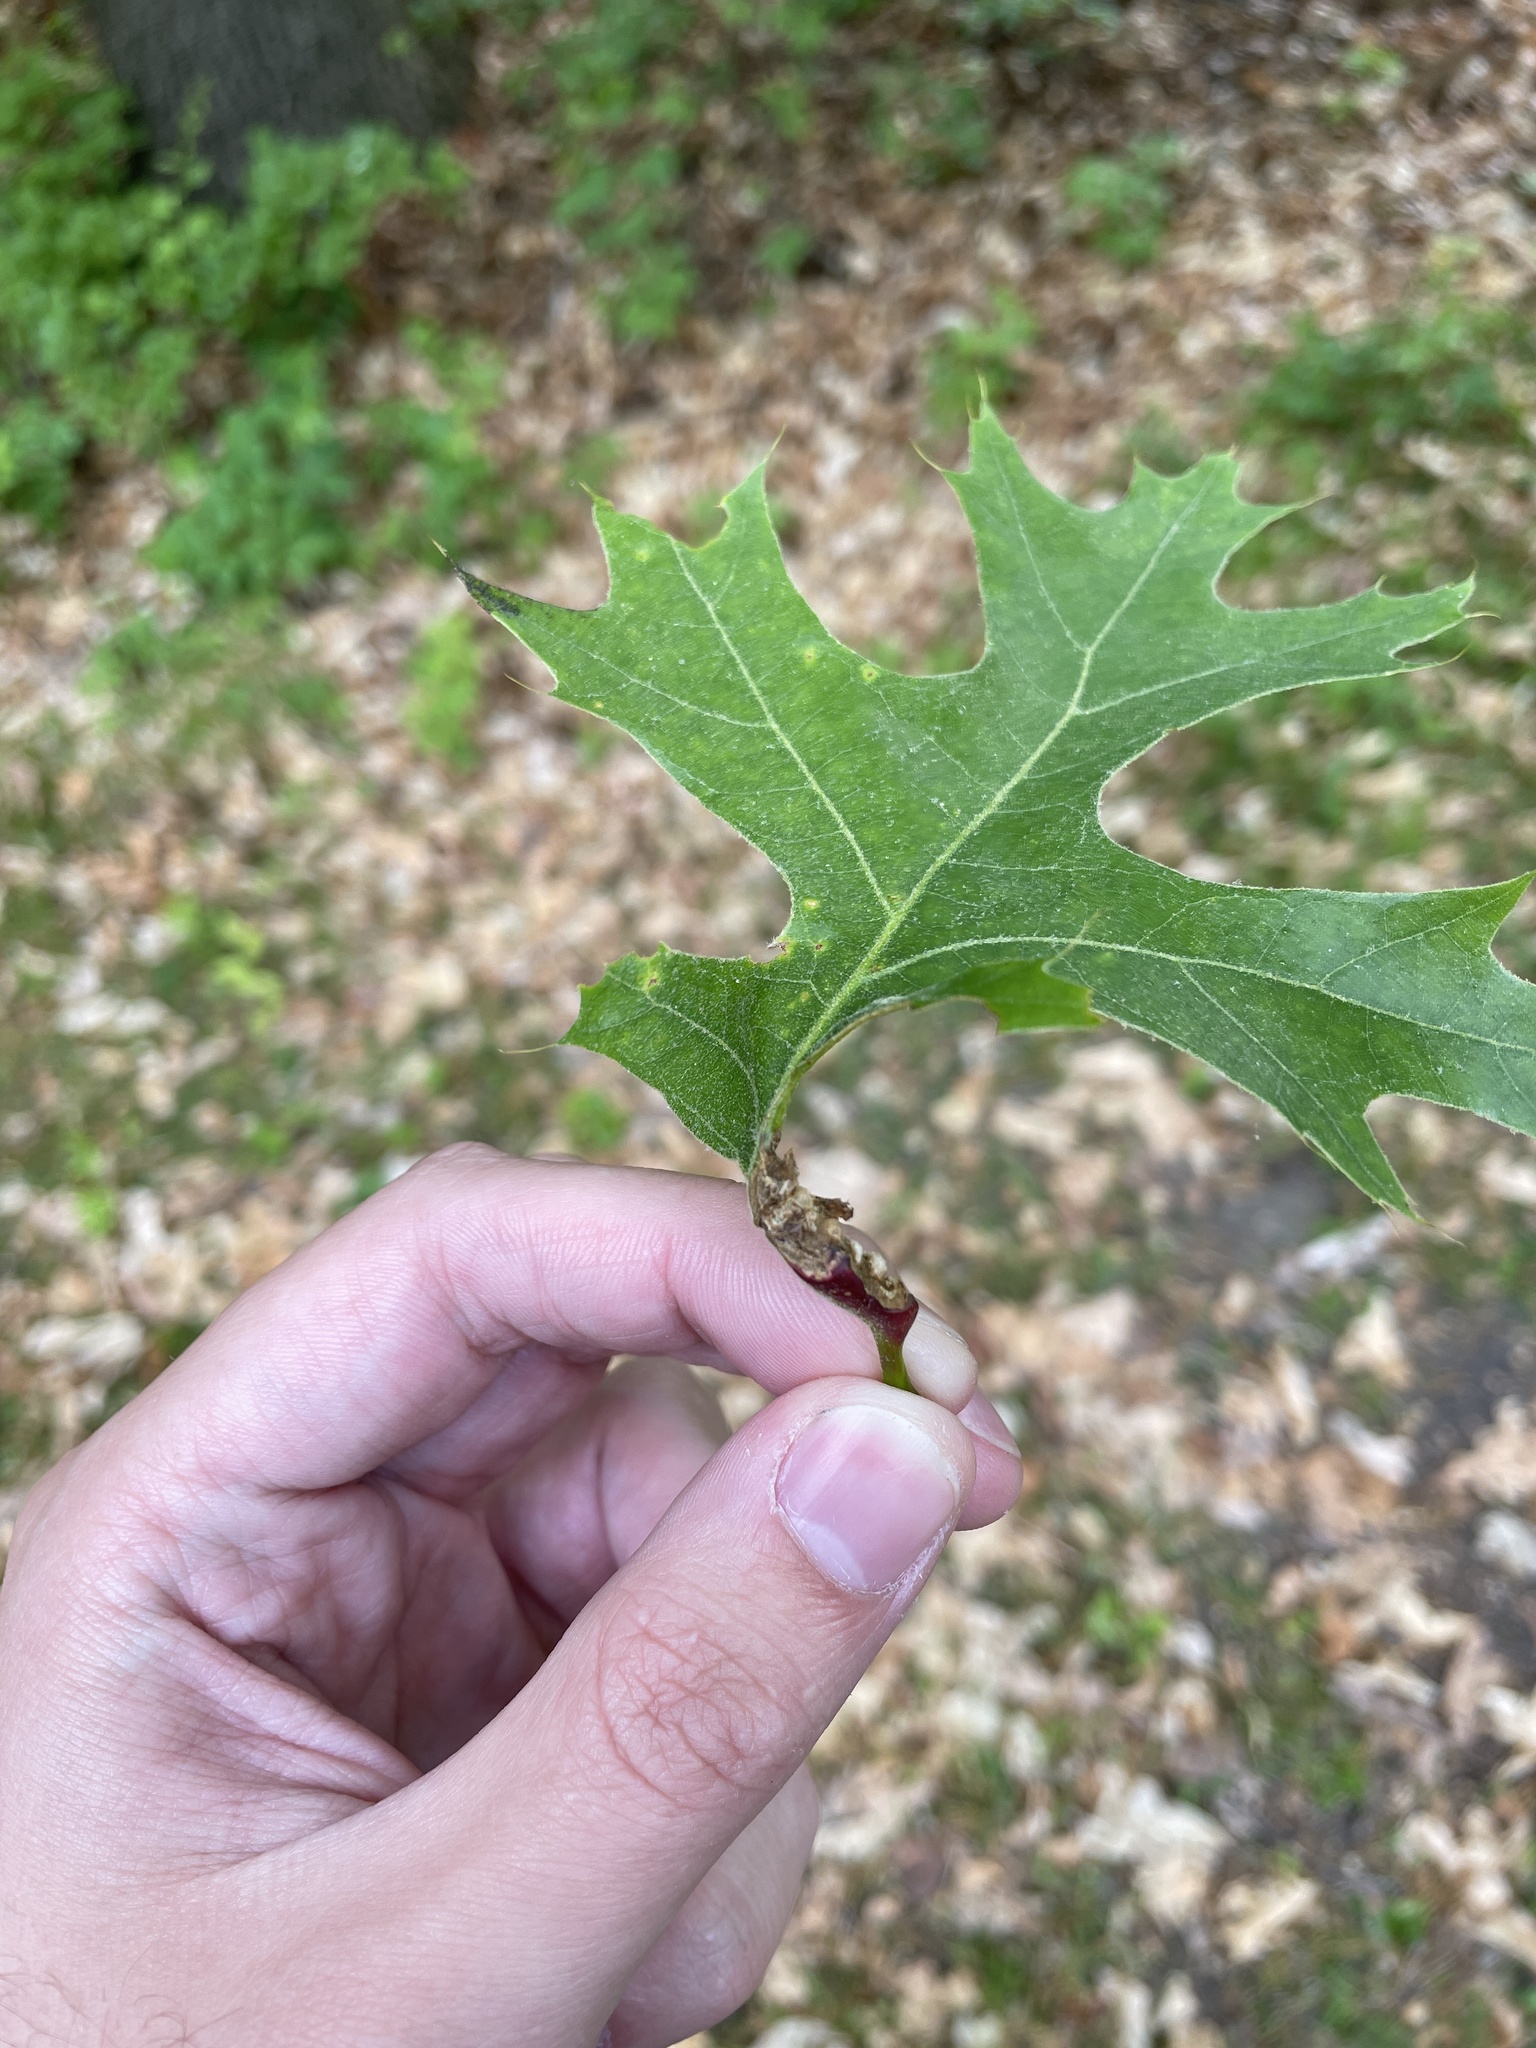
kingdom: Animalia
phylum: Arthropoda
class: Insecta
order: Hymenoptera
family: Cynipidae
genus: Melikaiella
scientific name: Melikaiella tumifica
